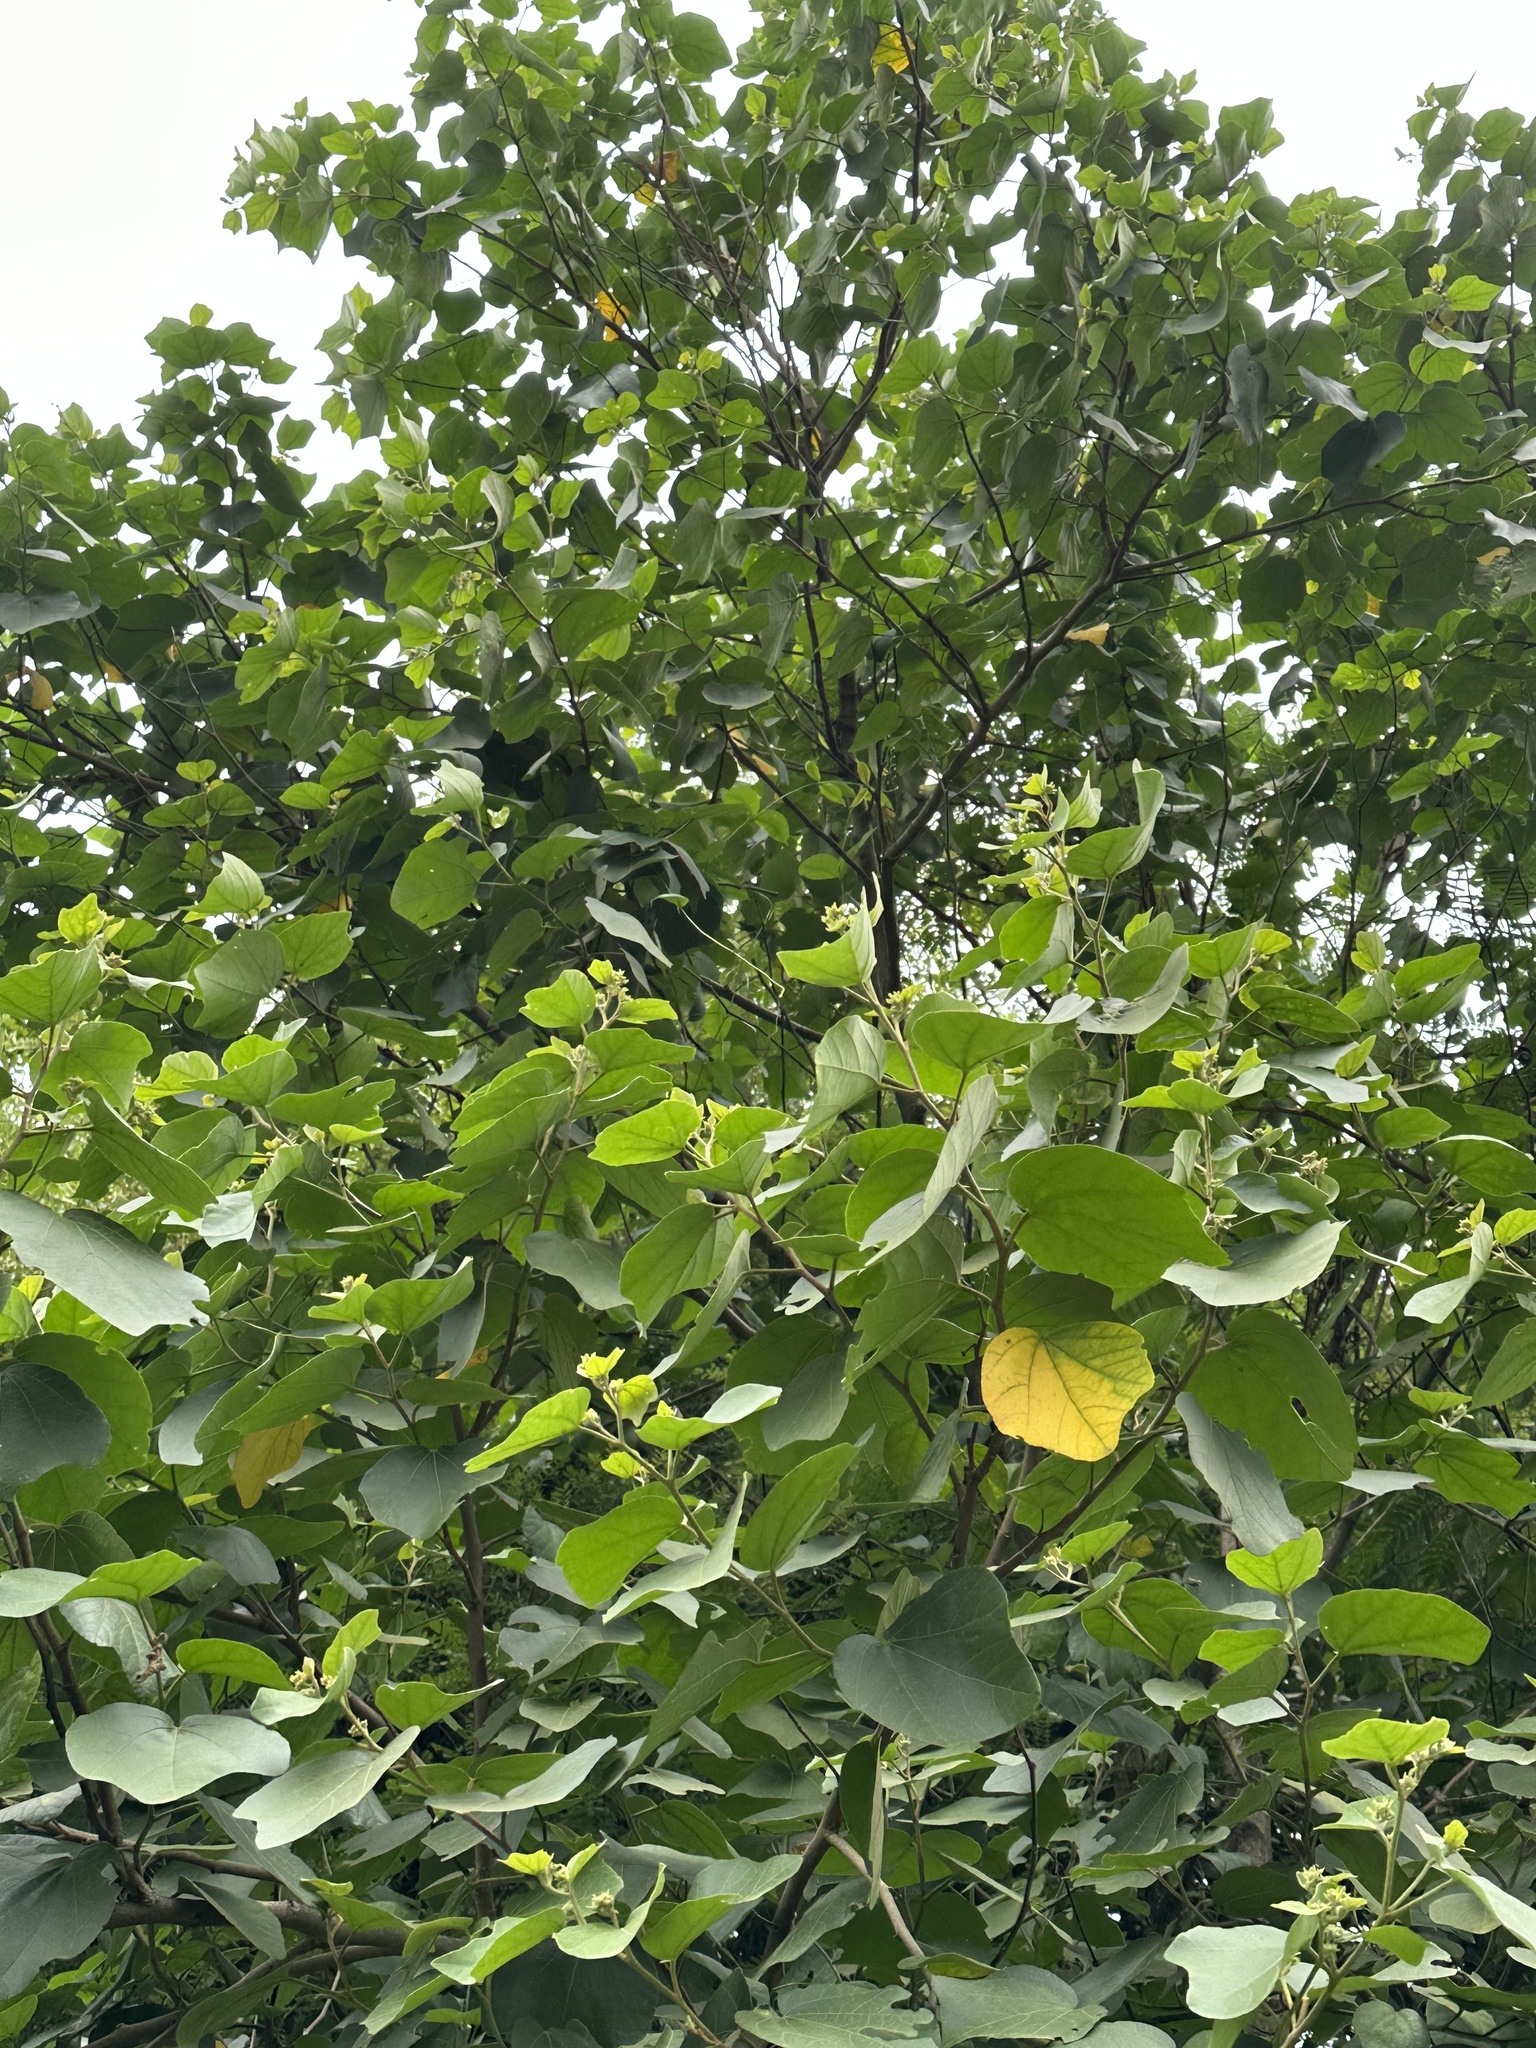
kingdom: Plantae
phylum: Tracheophyta
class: Magnoliopsida
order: Malvales
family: Malvaceae
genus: Kydia
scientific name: Kydia calycina
